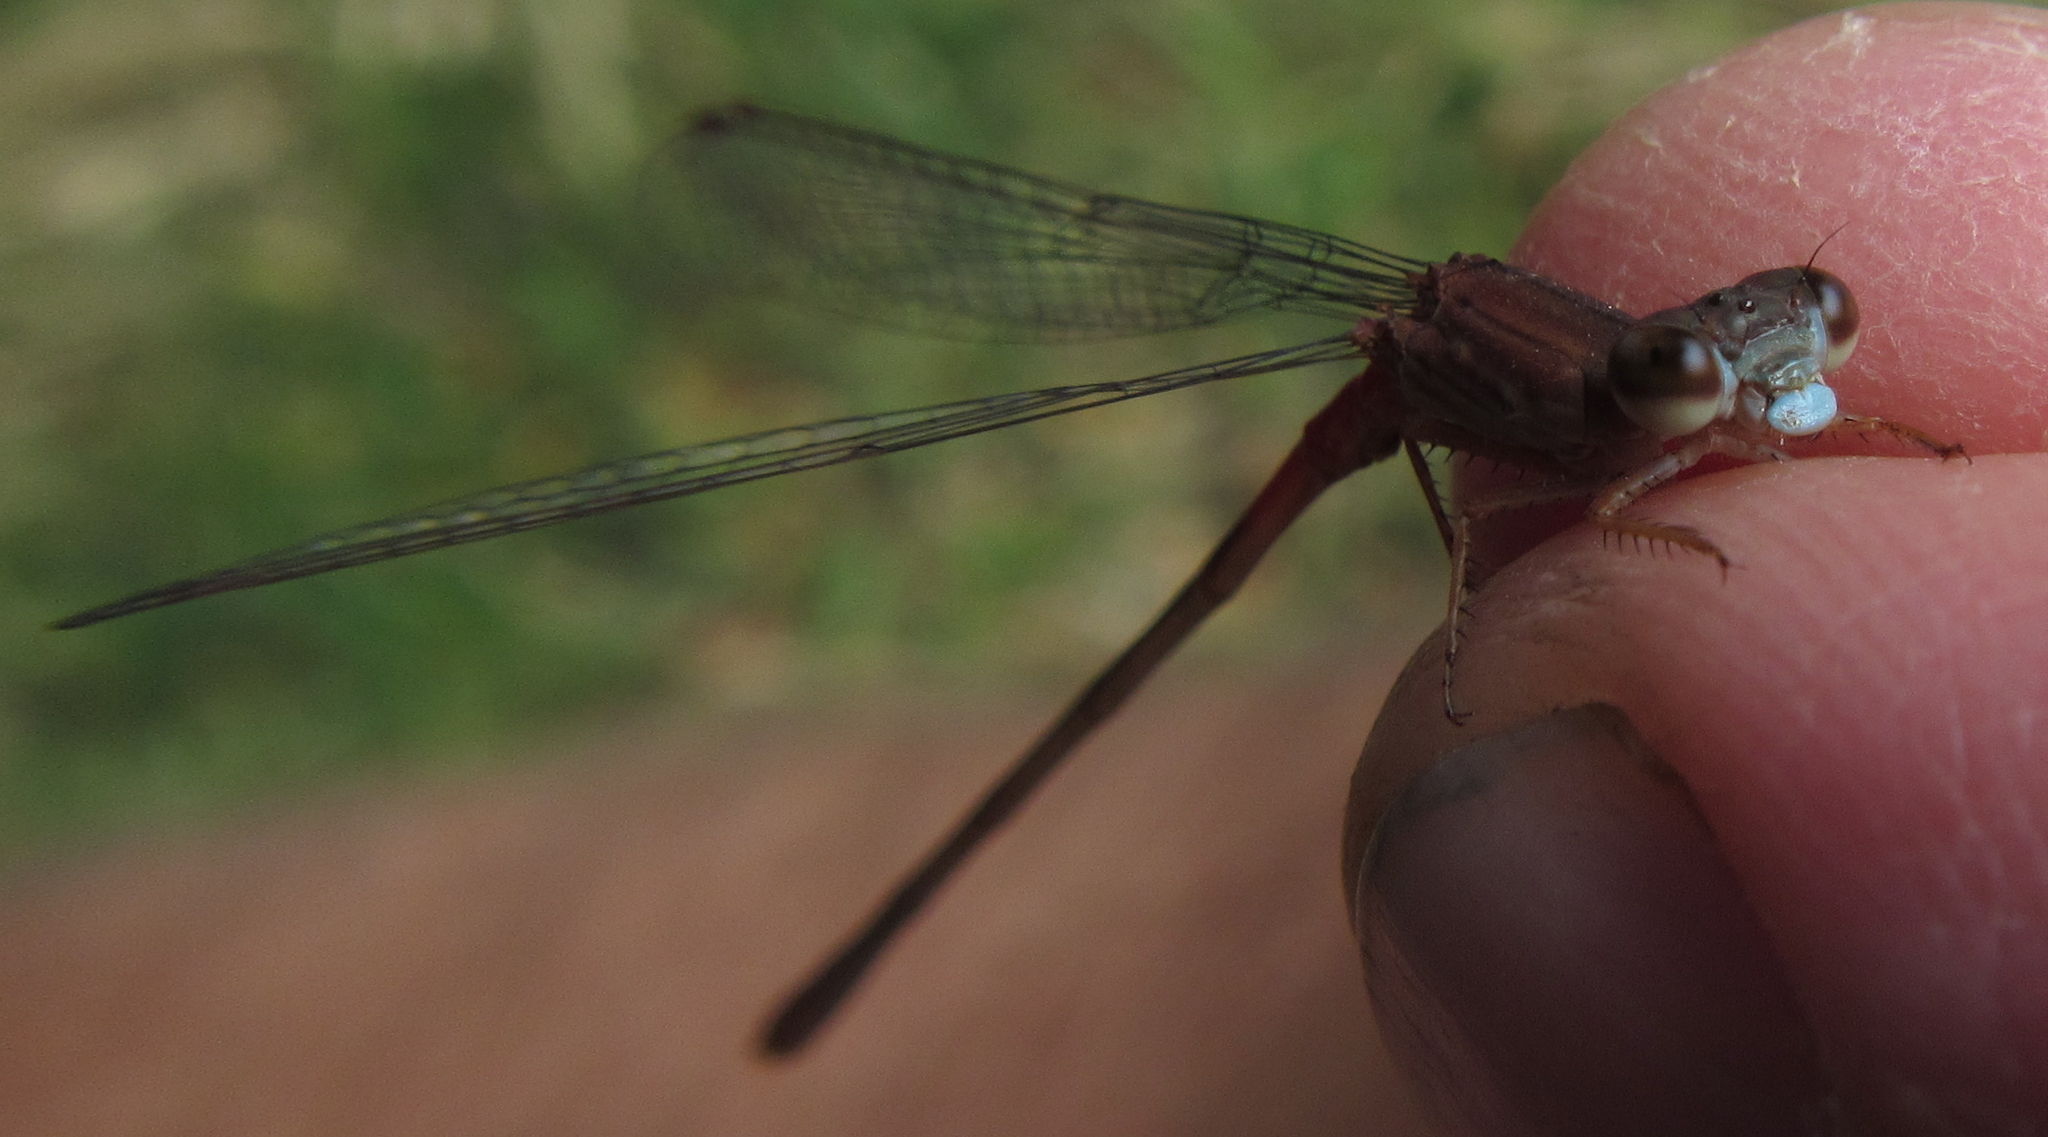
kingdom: Animalia
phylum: Arthropoda
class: Insecta
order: Odonata
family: Coenagrionidae
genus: Ceriagrion
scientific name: Ceriagrion katamborae
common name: White-faced waxtail
